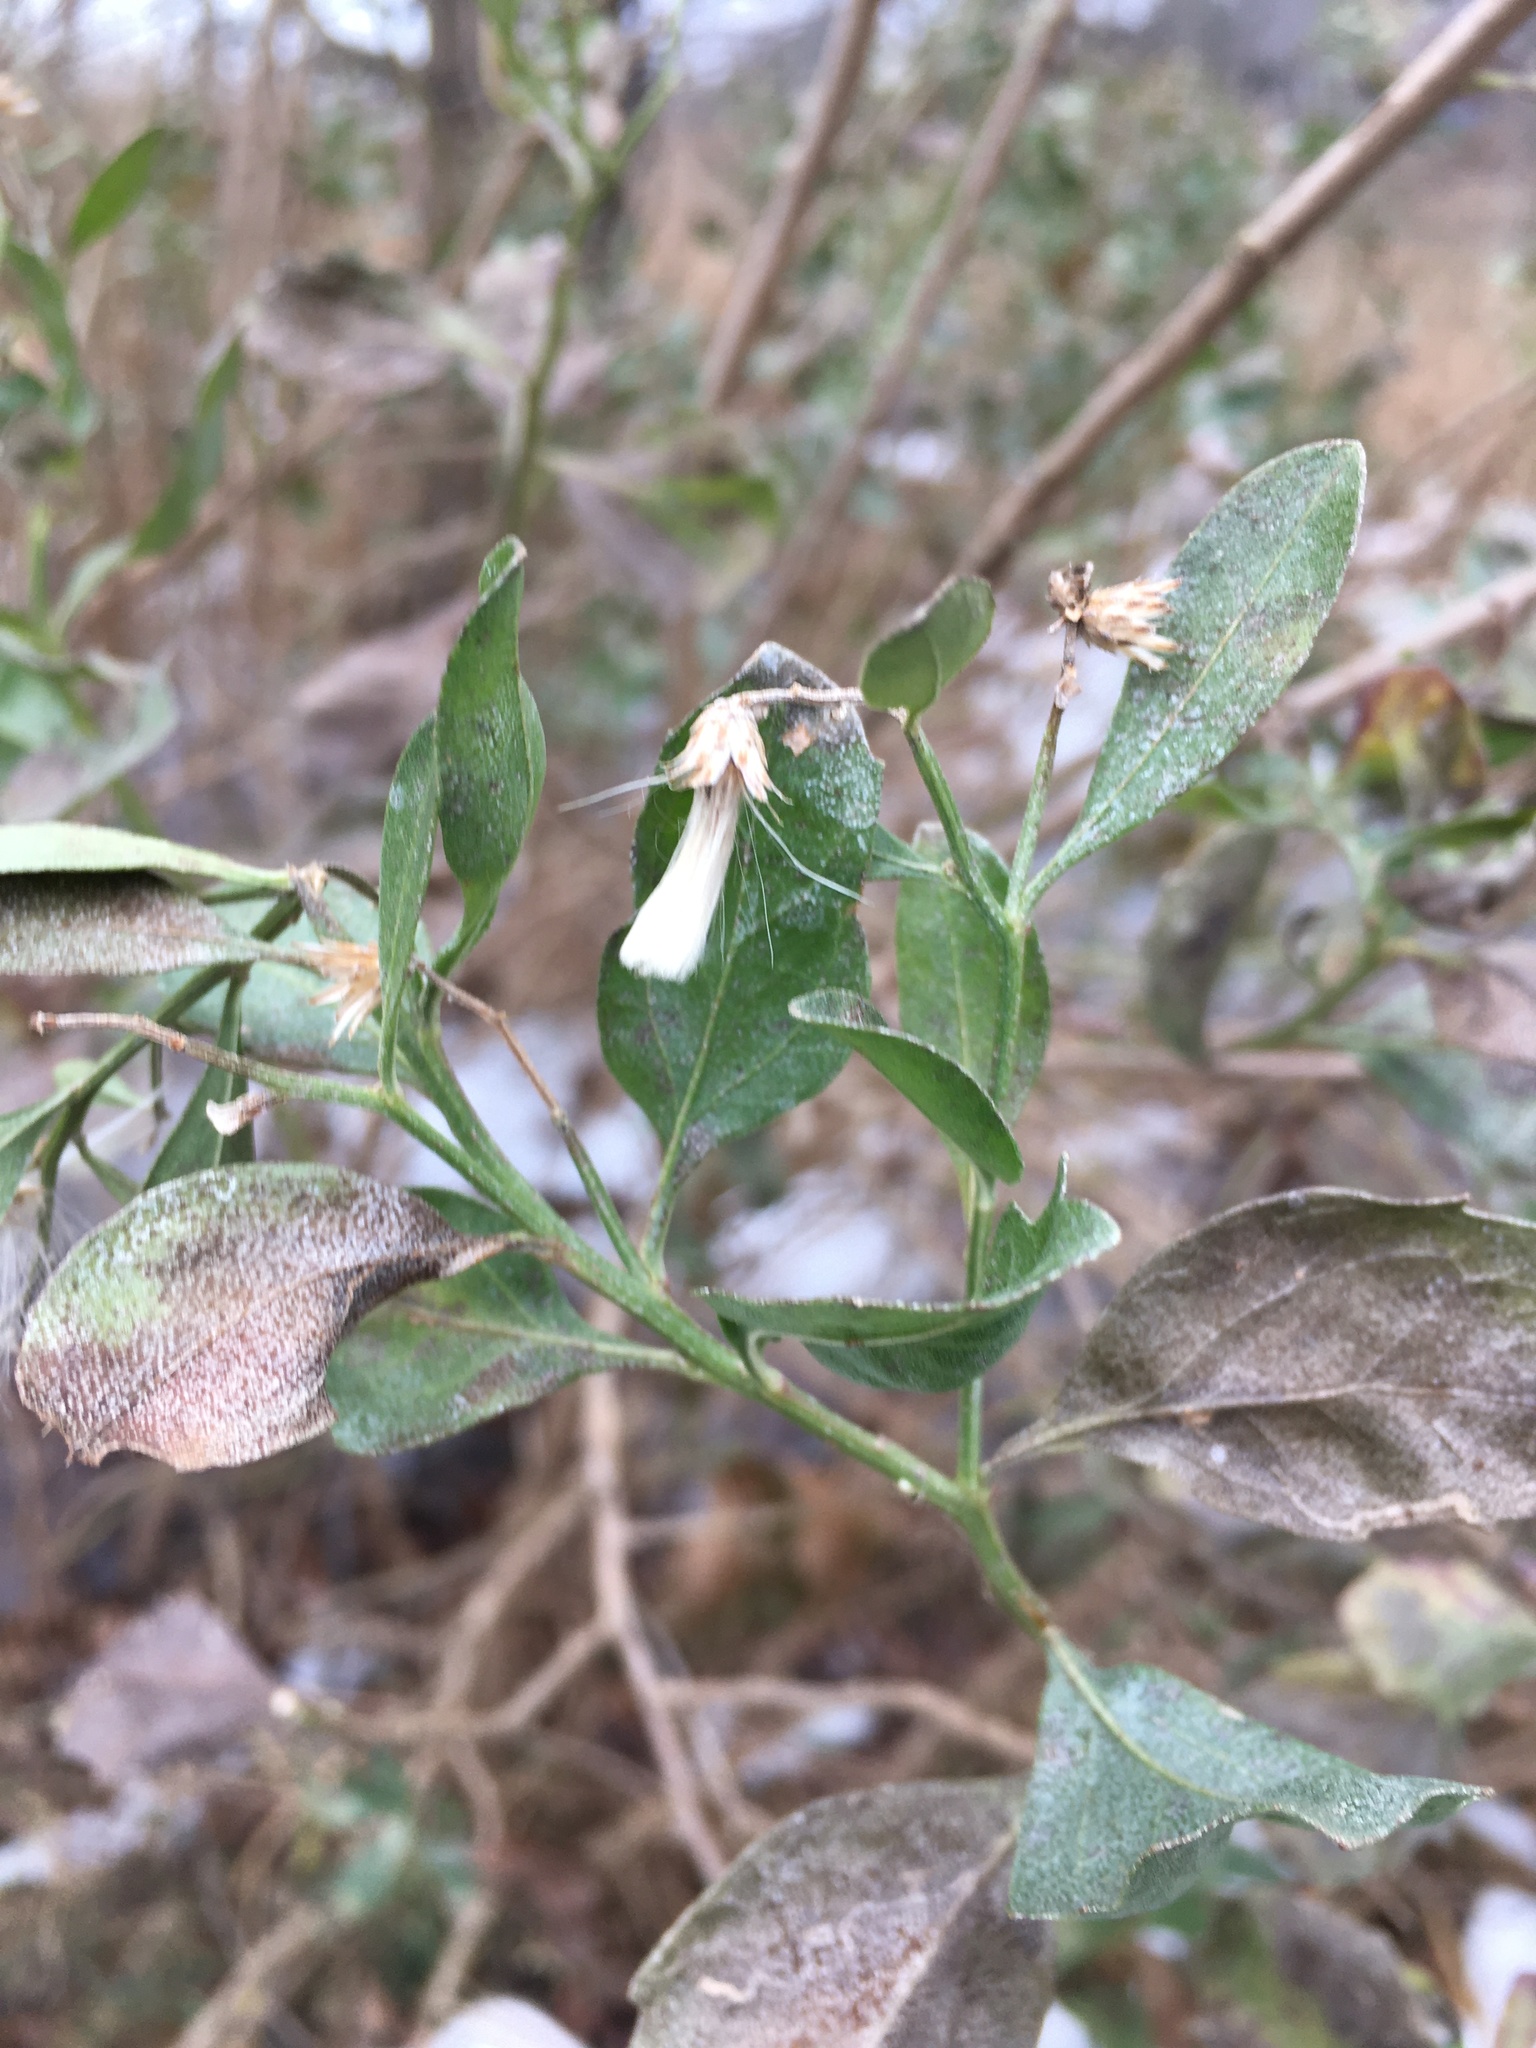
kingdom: Plantae
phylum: Tracheophyta
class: Magnoliopsida
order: Asterales
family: Asteraceae
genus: Baccharis
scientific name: Baccharis halimifolia
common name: Eastern baccharis
